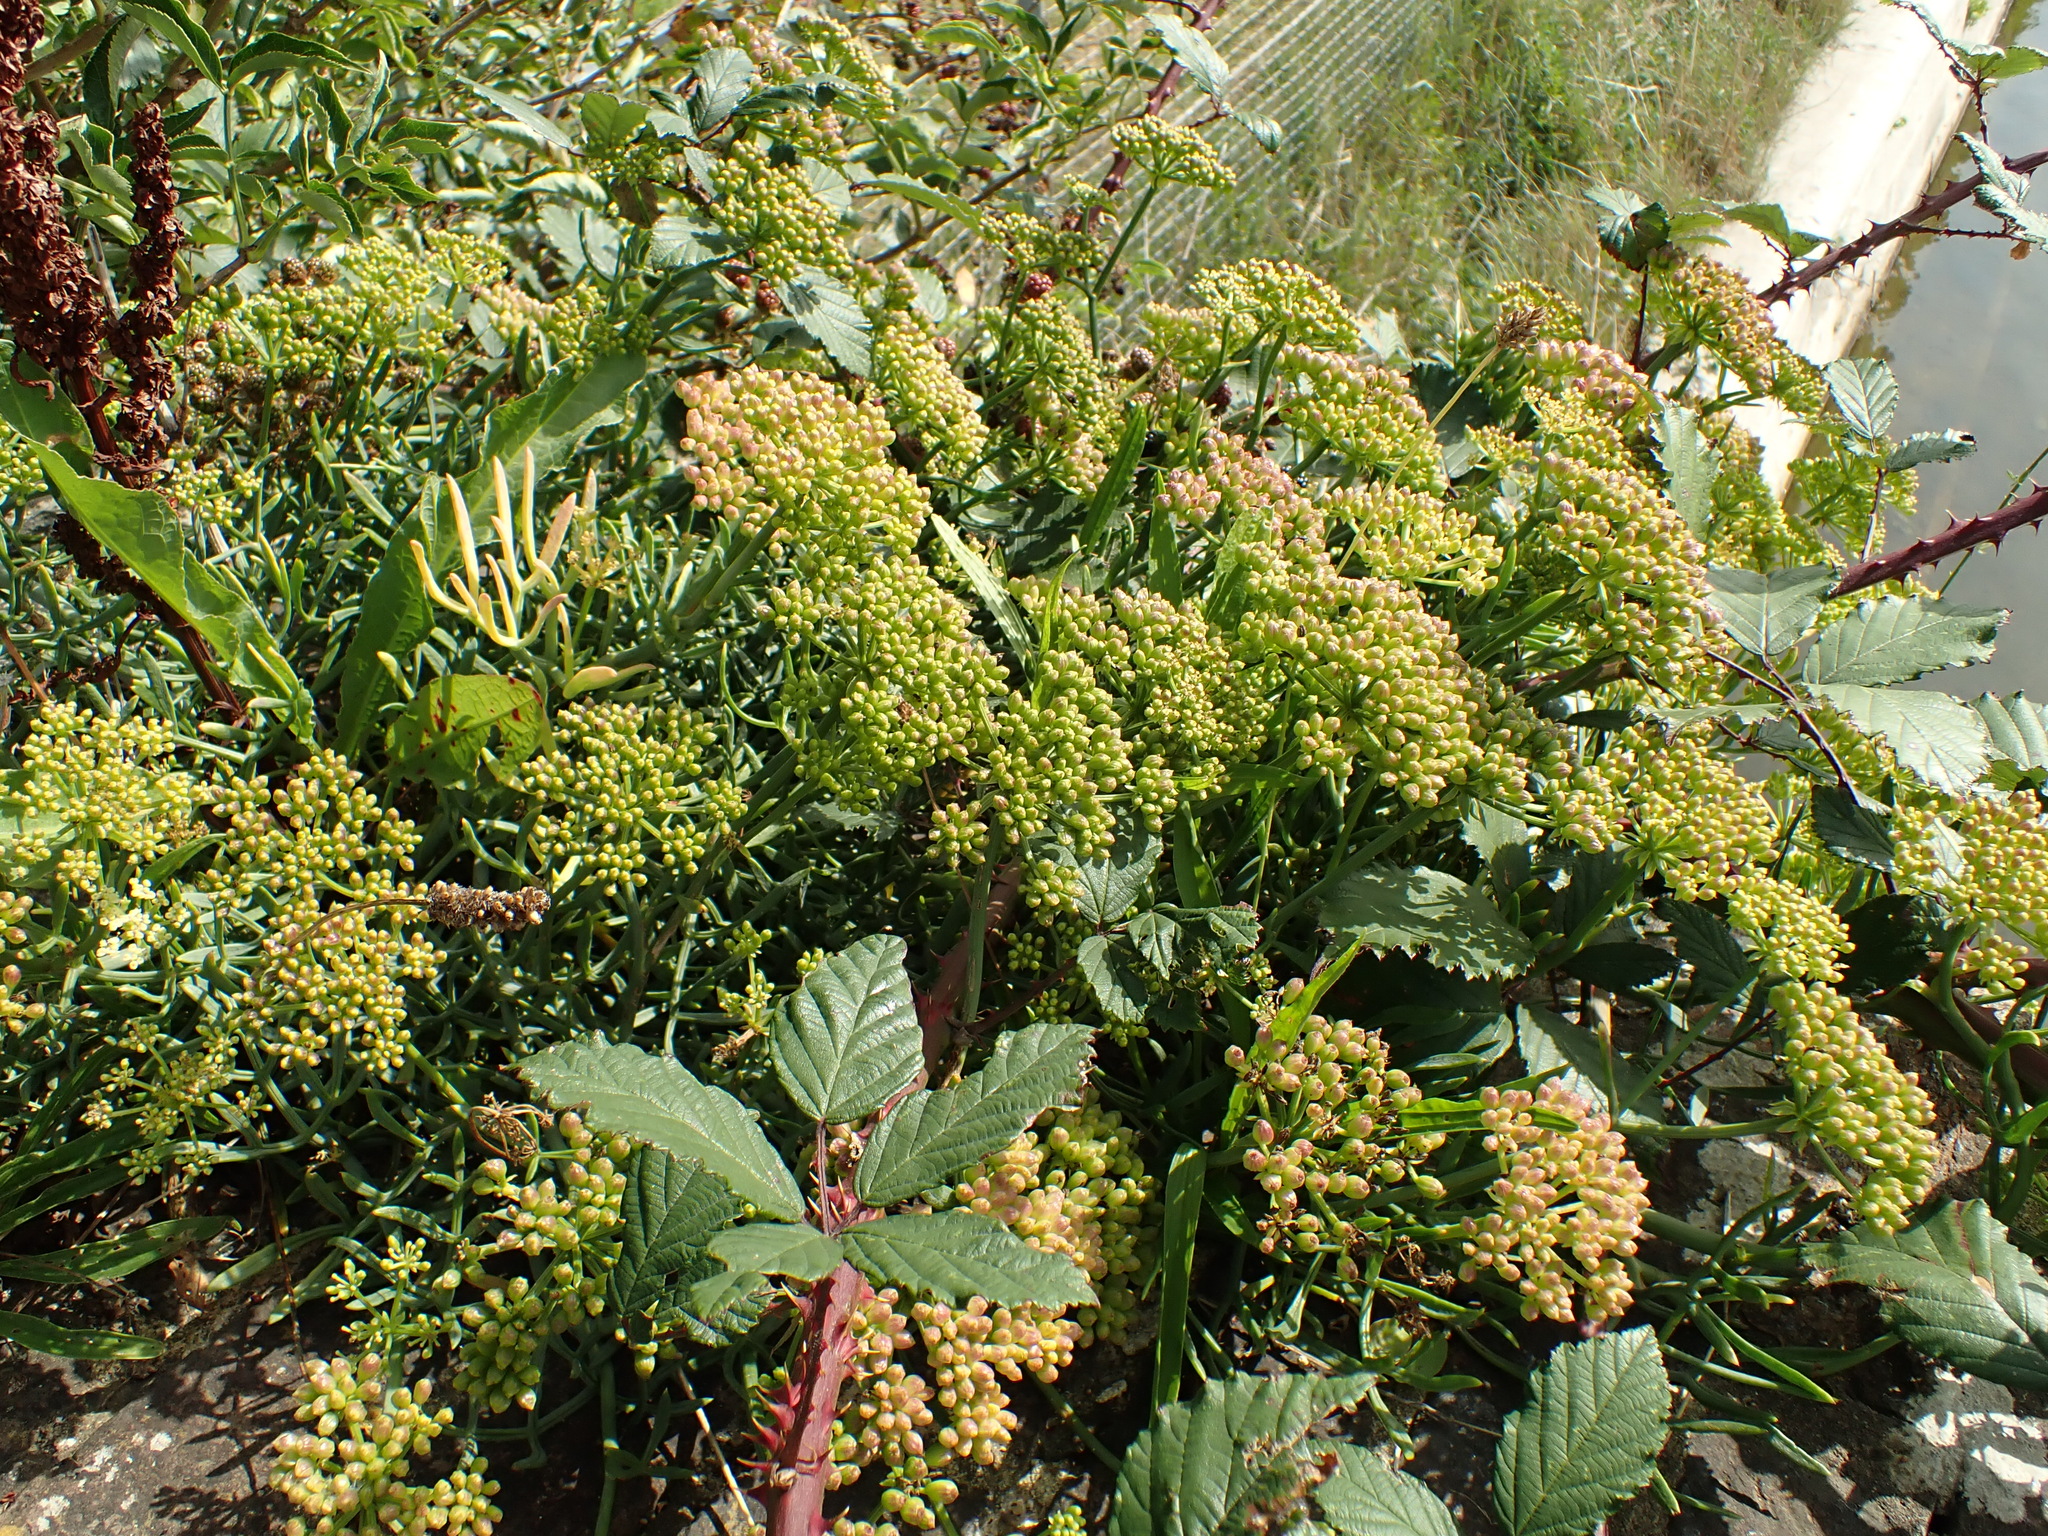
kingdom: Plantae
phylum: Tracheophyta
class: Magnoliopsida
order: Apiales
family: Apiaceae
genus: Crithmum
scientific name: Crithmum maritimum
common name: Rock samphire
